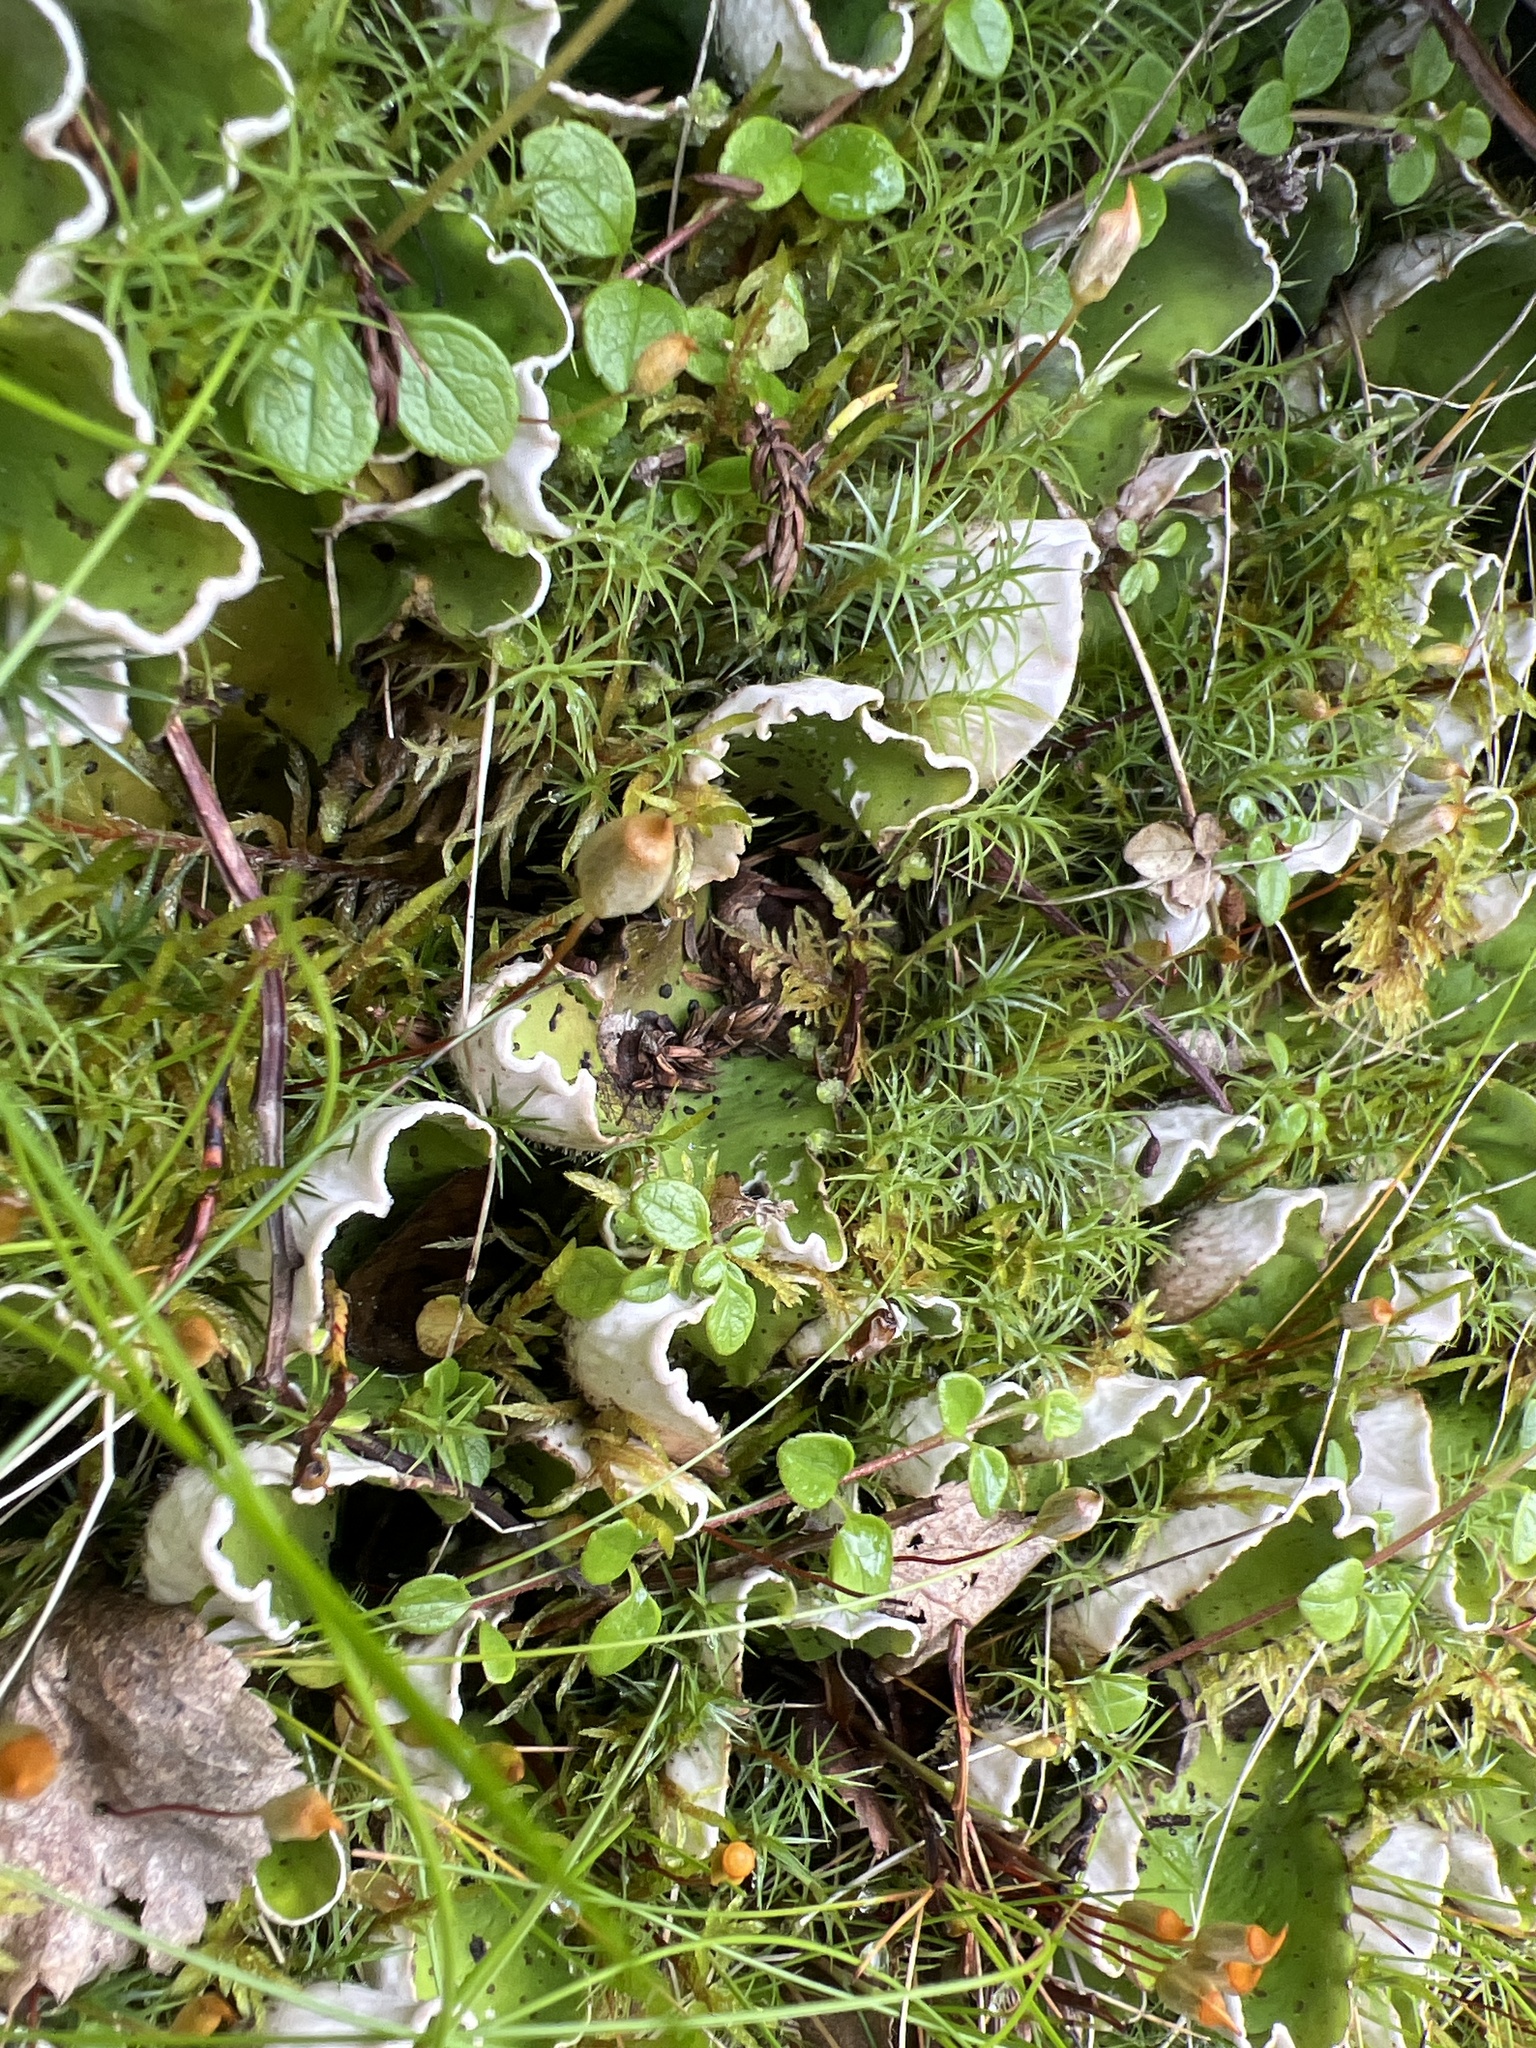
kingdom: Fungi
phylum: Ascomycota
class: Lecanoromycetes
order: Peltigerales
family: Peltigeraceae
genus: Peltigera
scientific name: Peltigera aphthosa
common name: Common freckle pelt lichen
